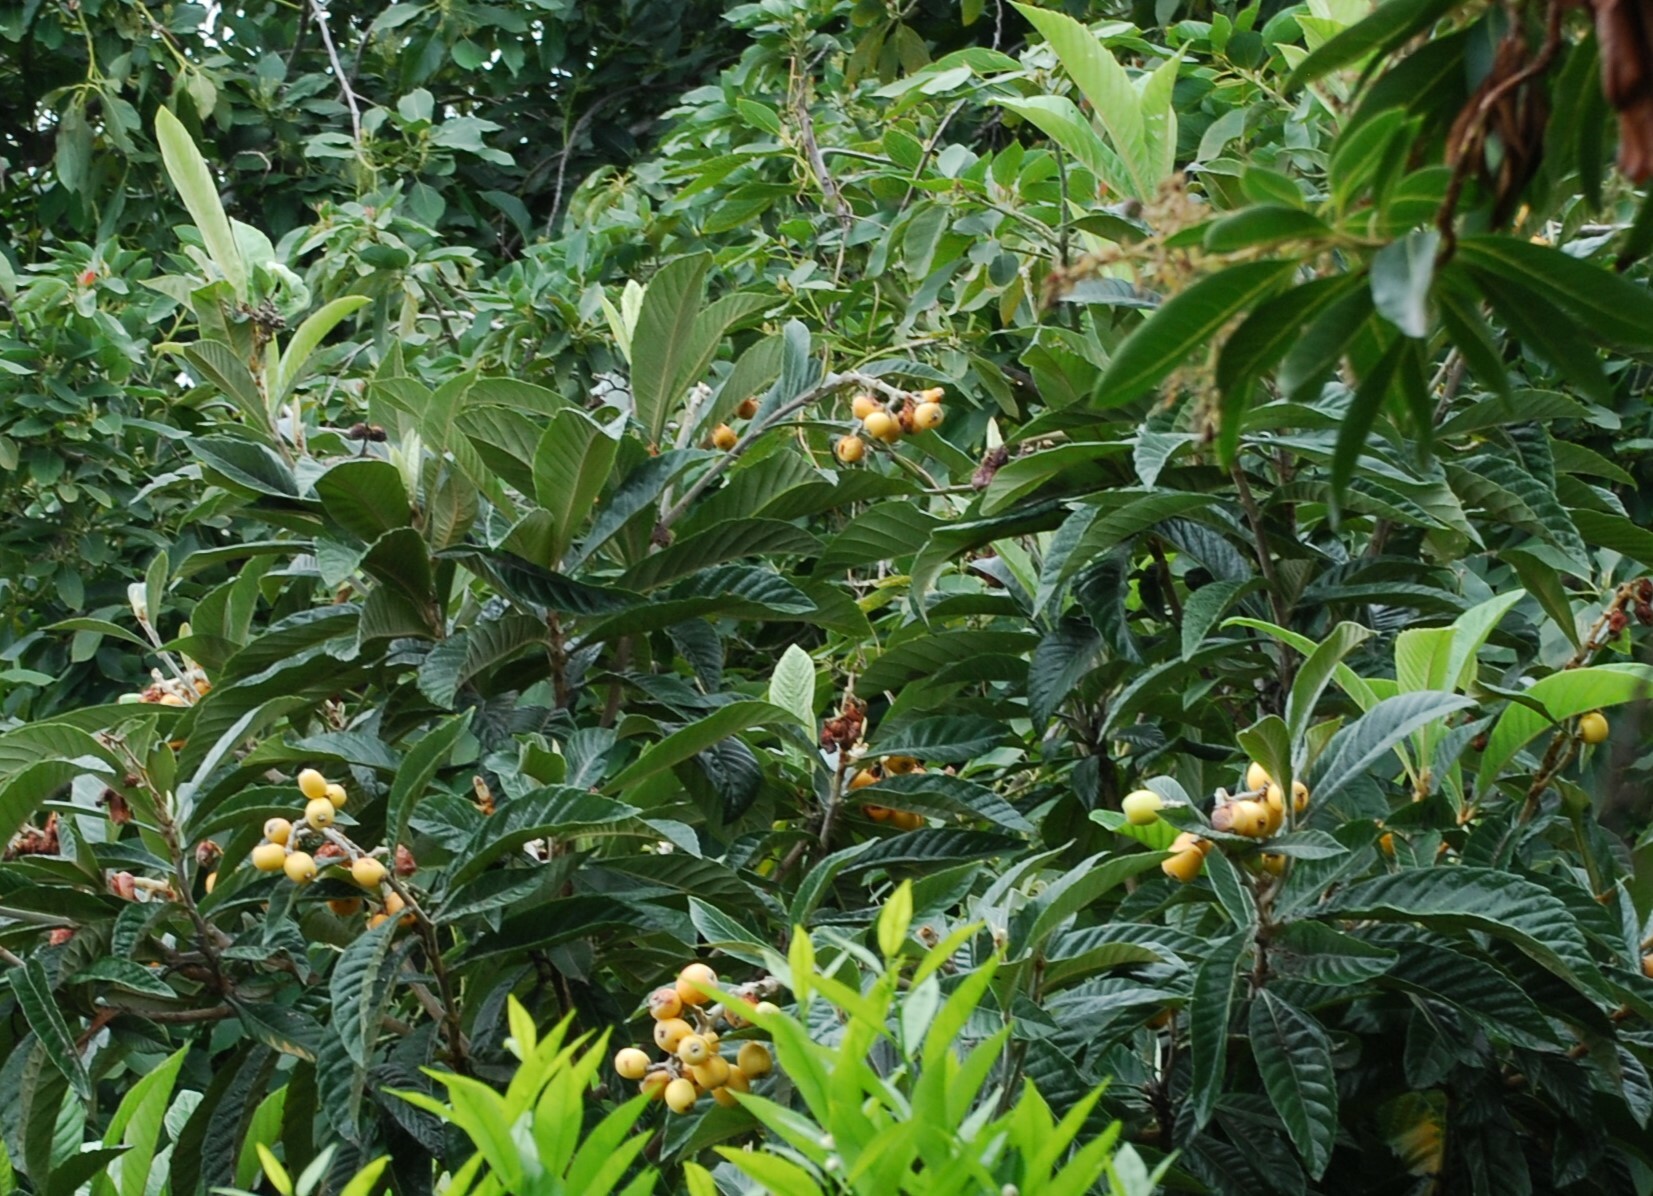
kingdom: Plantae
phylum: Tracheophyta
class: Magnoliopsida
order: Rosales
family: Rosaceae
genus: Rhaphiolepis
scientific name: Rhaphiolepis bibas
